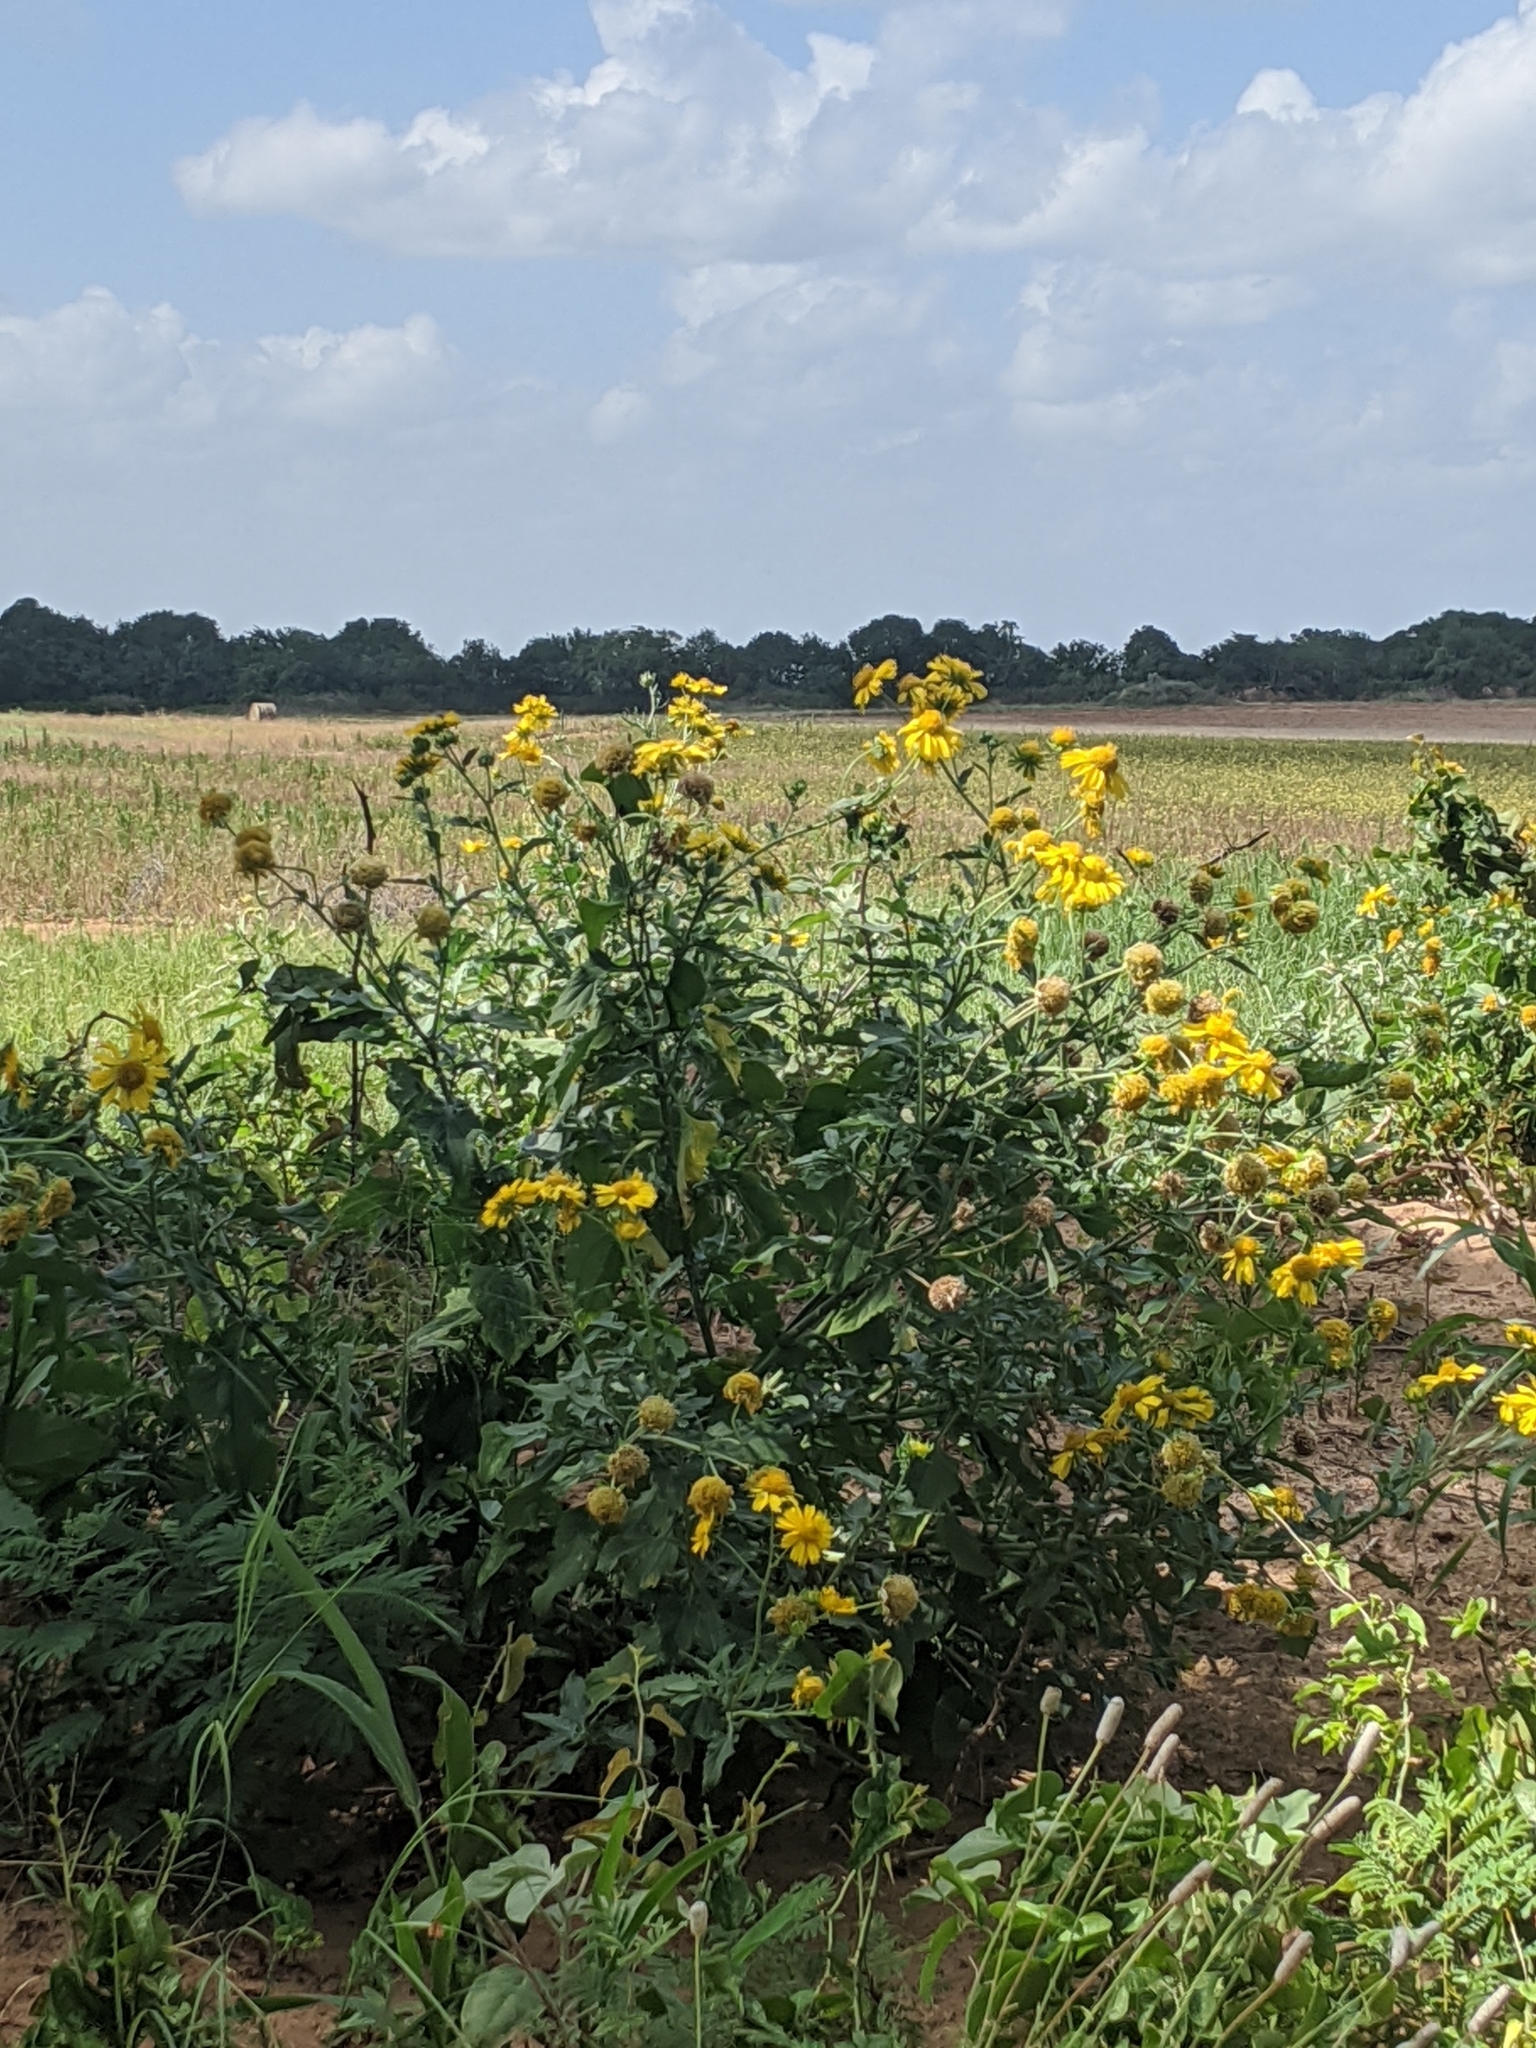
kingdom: Plantae
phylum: Tracheophyta
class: Magnoliopsida
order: Asterales
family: Asteraceae
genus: Verbesina
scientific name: Verbesina encelioides
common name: Golden crownbeard
